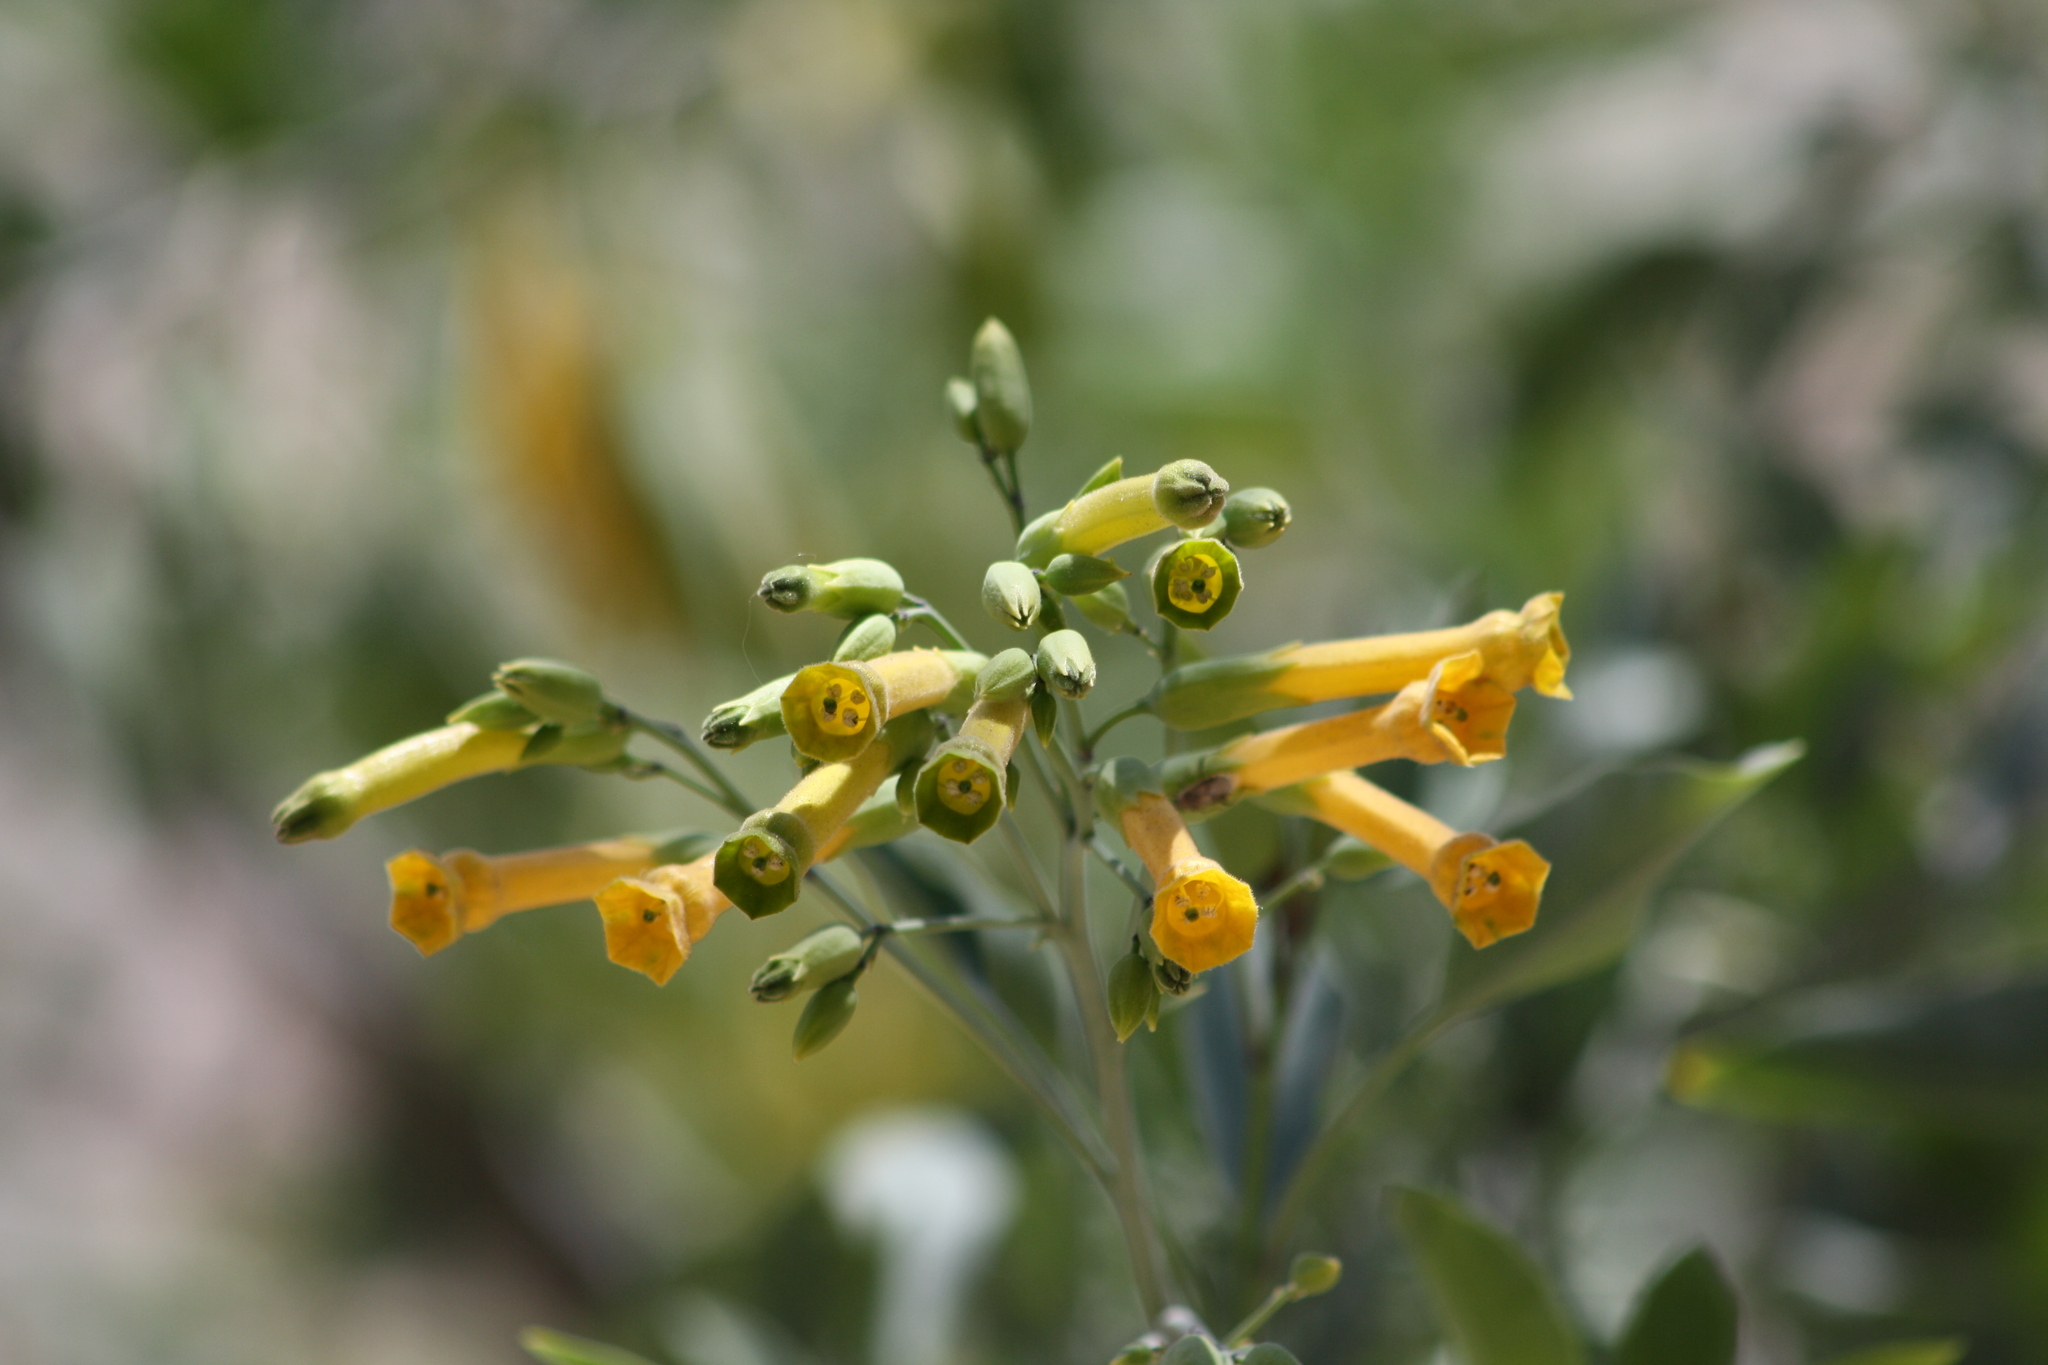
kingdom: Plantae
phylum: Tracheophyta
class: Magnoliopsida
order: Solanales
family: Solanaceae
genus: Nicotiana
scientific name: Nicotiana glauca
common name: Tree tobacco
